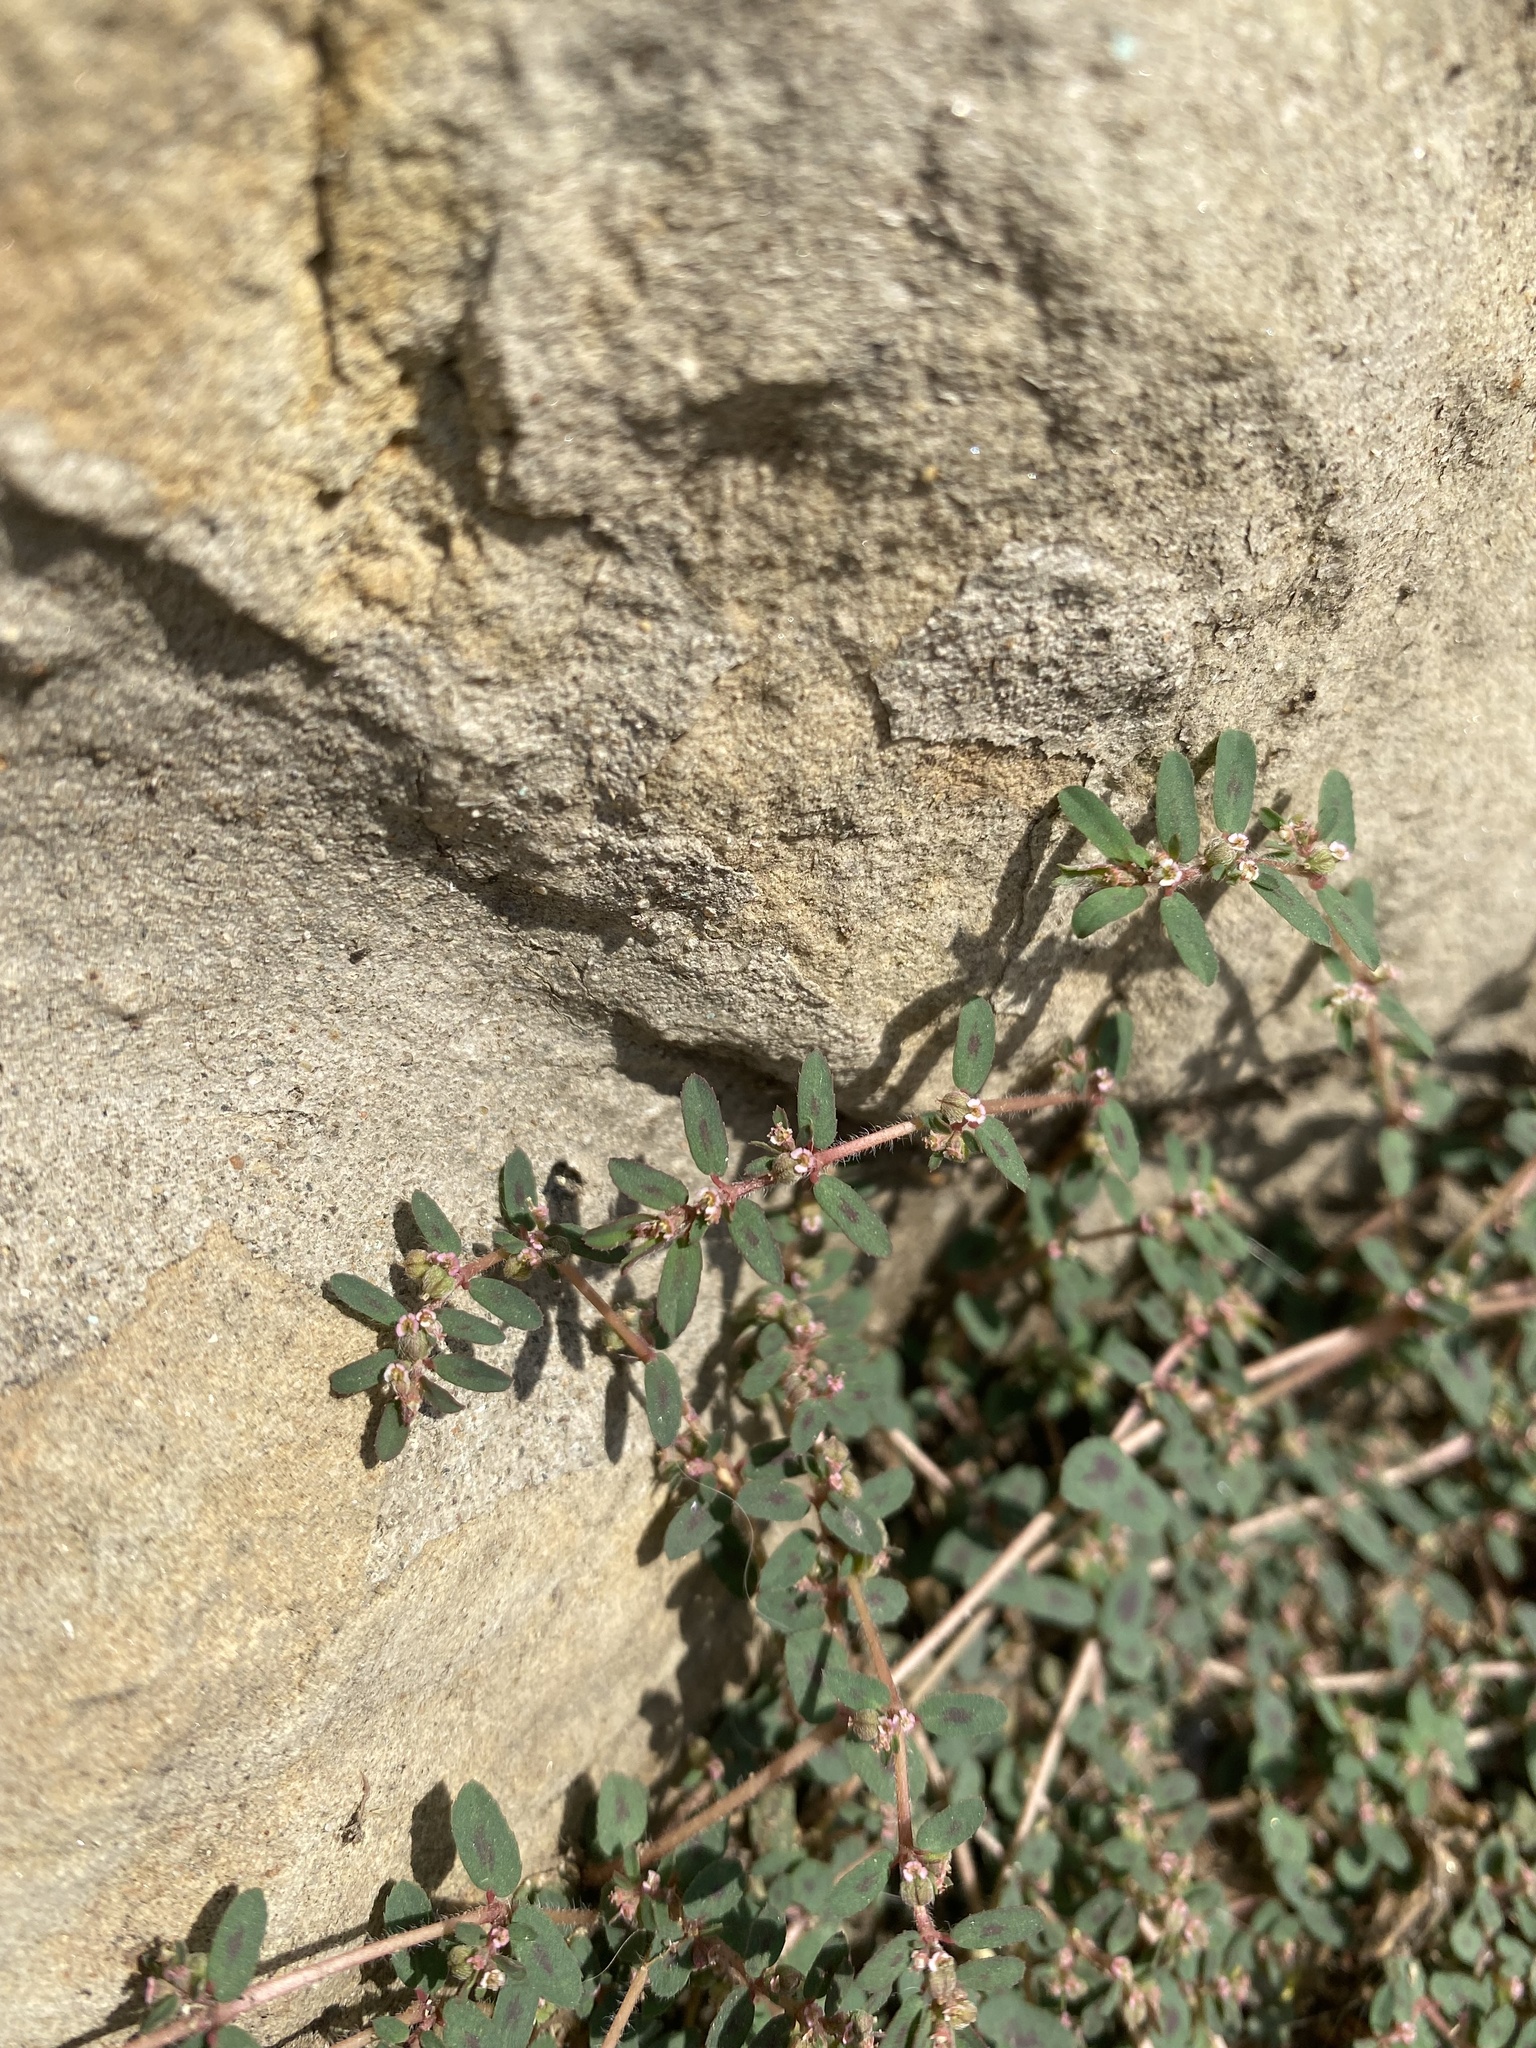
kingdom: Plantae
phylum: Tracheophyta
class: Magnoliopsida
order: Malpighiales
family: Euphorbiaceae
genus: Euphorbia
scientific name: Euphorbia maculata
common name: Spotted spurge
